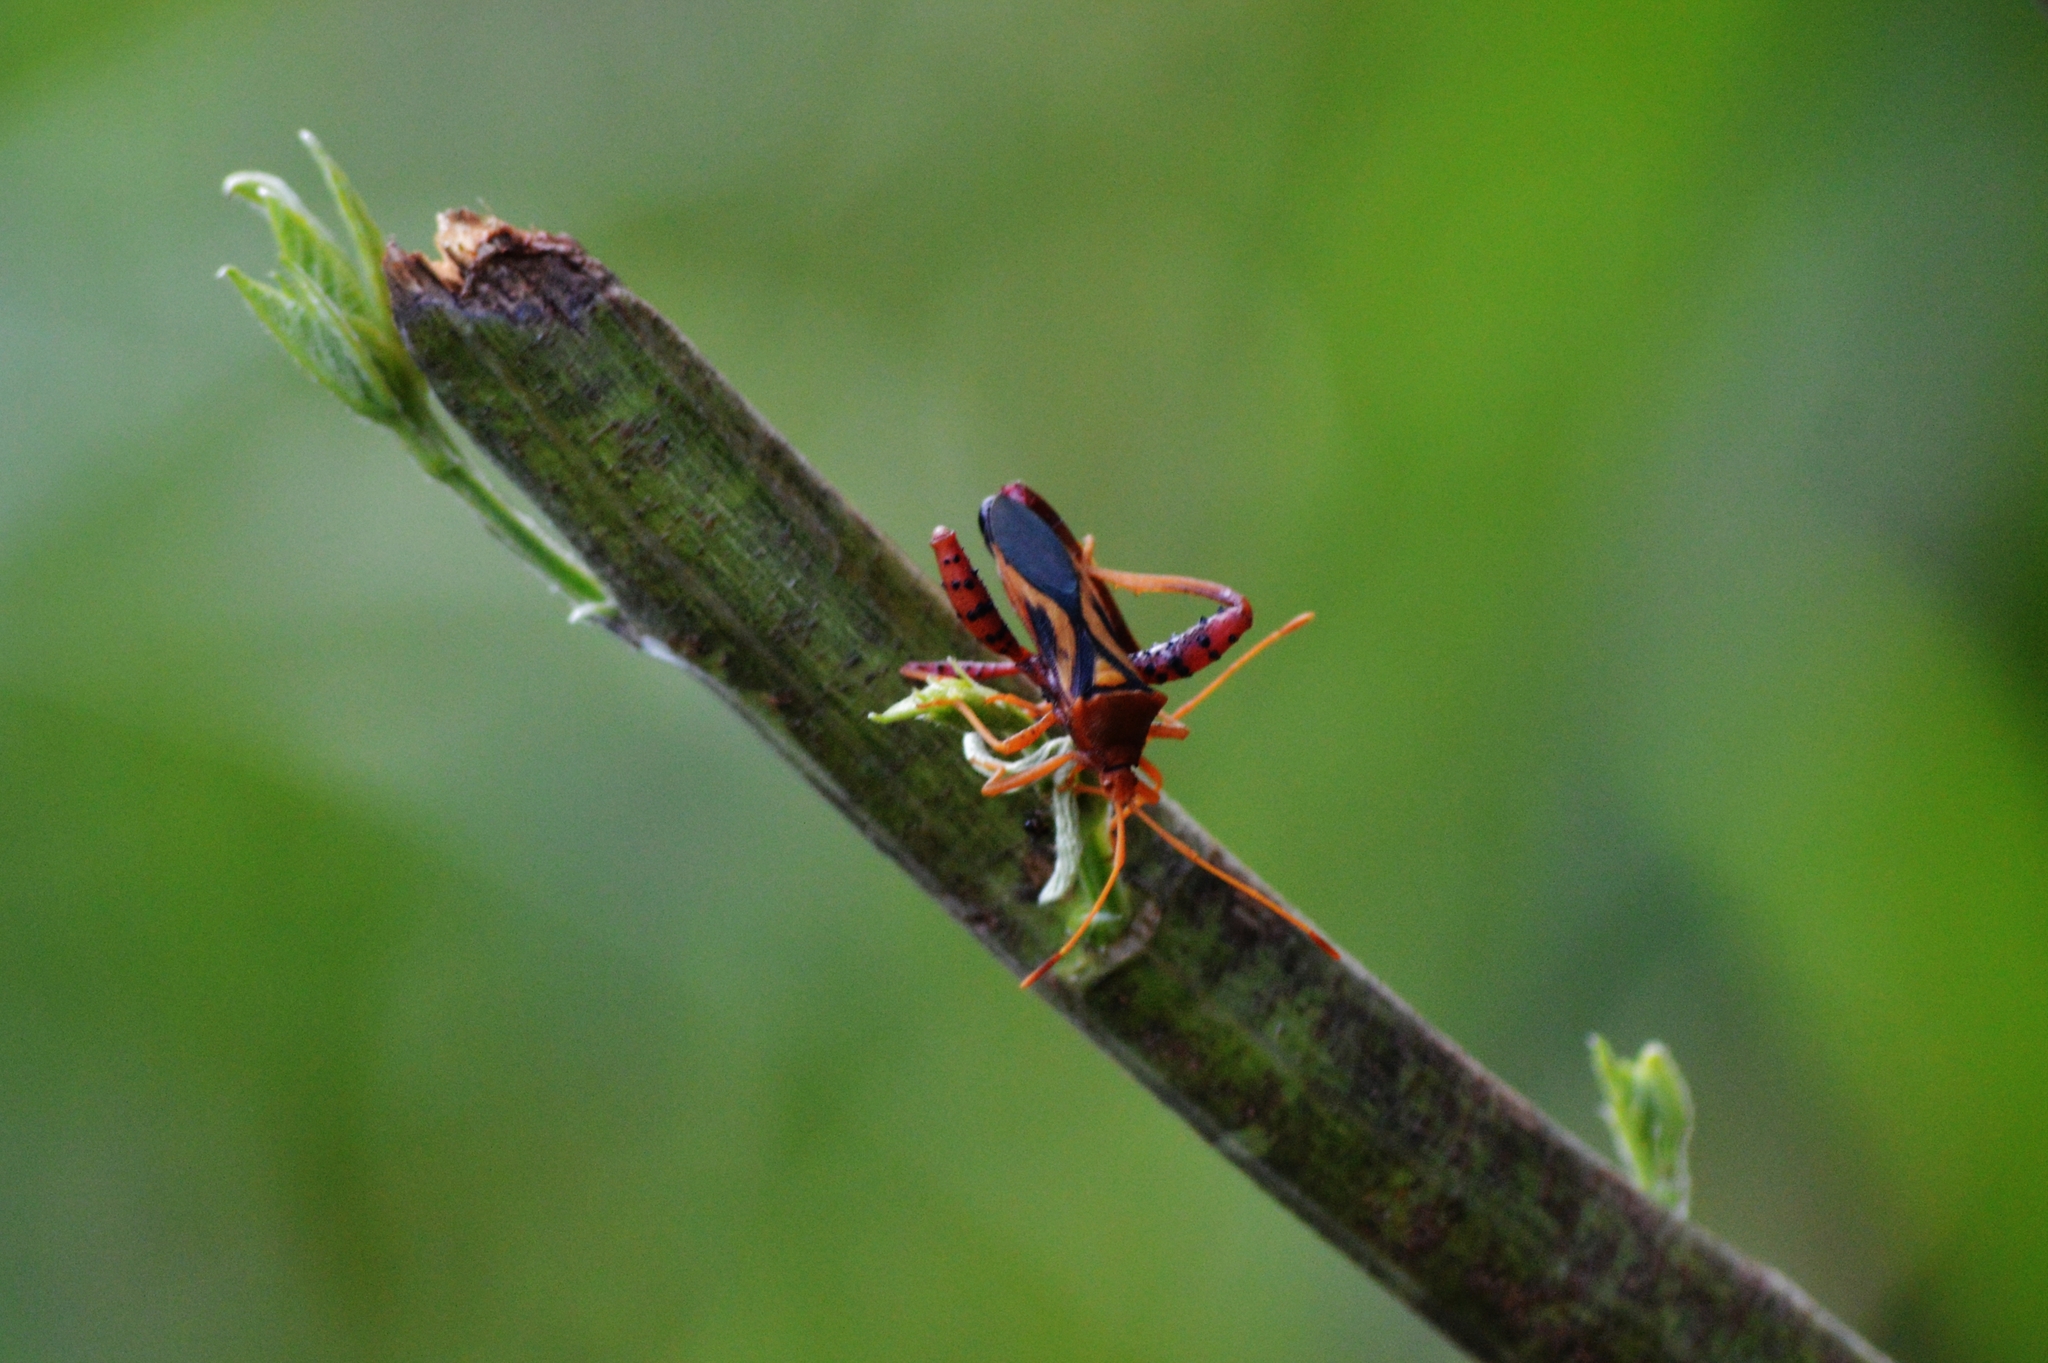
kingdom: Animalia
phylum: Arthropoda
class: Insecta
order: Hemiptera
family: Coreidae
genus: Crinocerus
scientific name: Crinocerus sanctus
